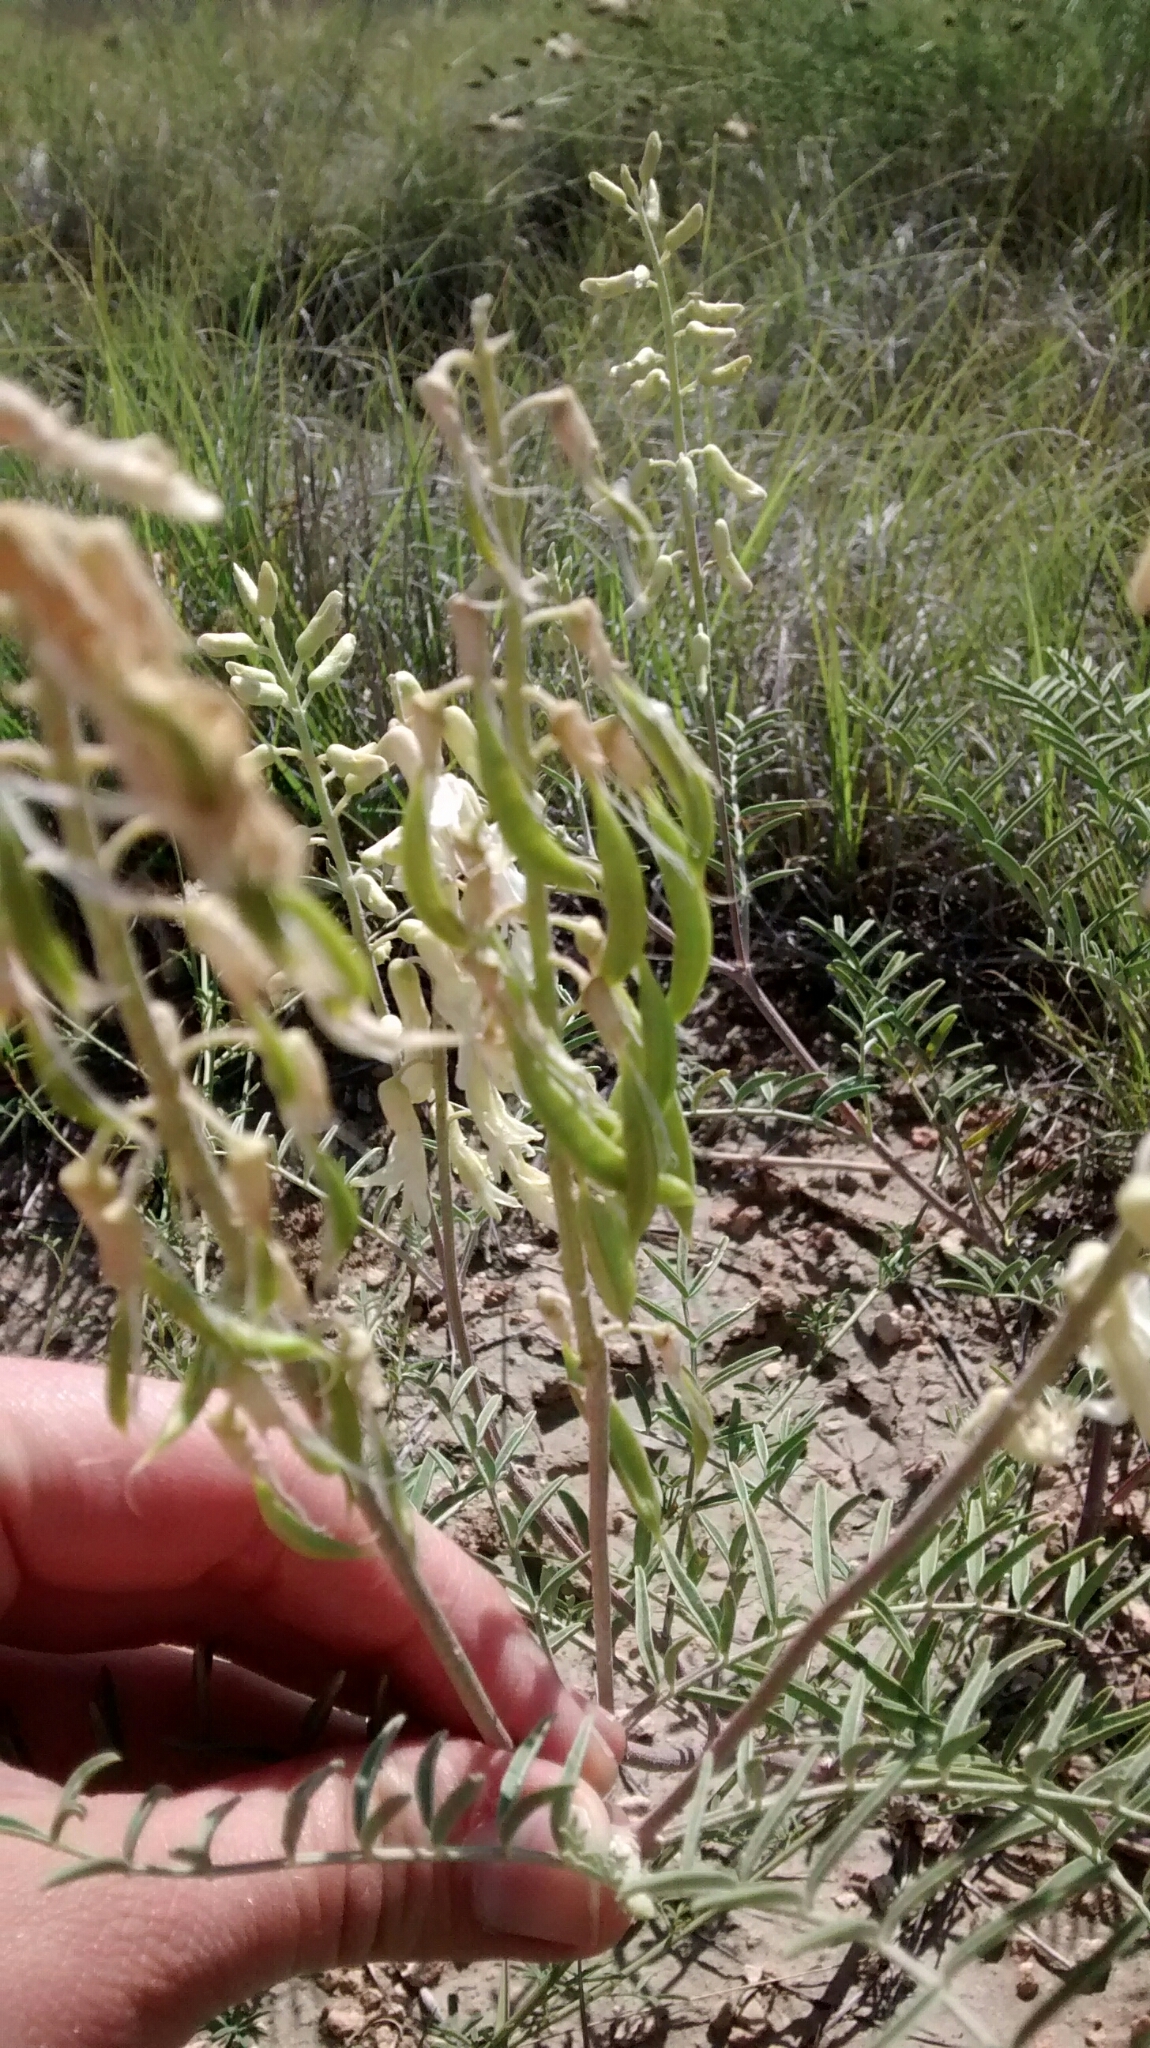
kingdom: Plantae
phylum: Tracheophyta
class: Magnoliopsida
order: Fabales
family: Fabaceae
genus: Astragalus
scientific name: Astragalus racemosus
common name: Alkali milk-vetch
